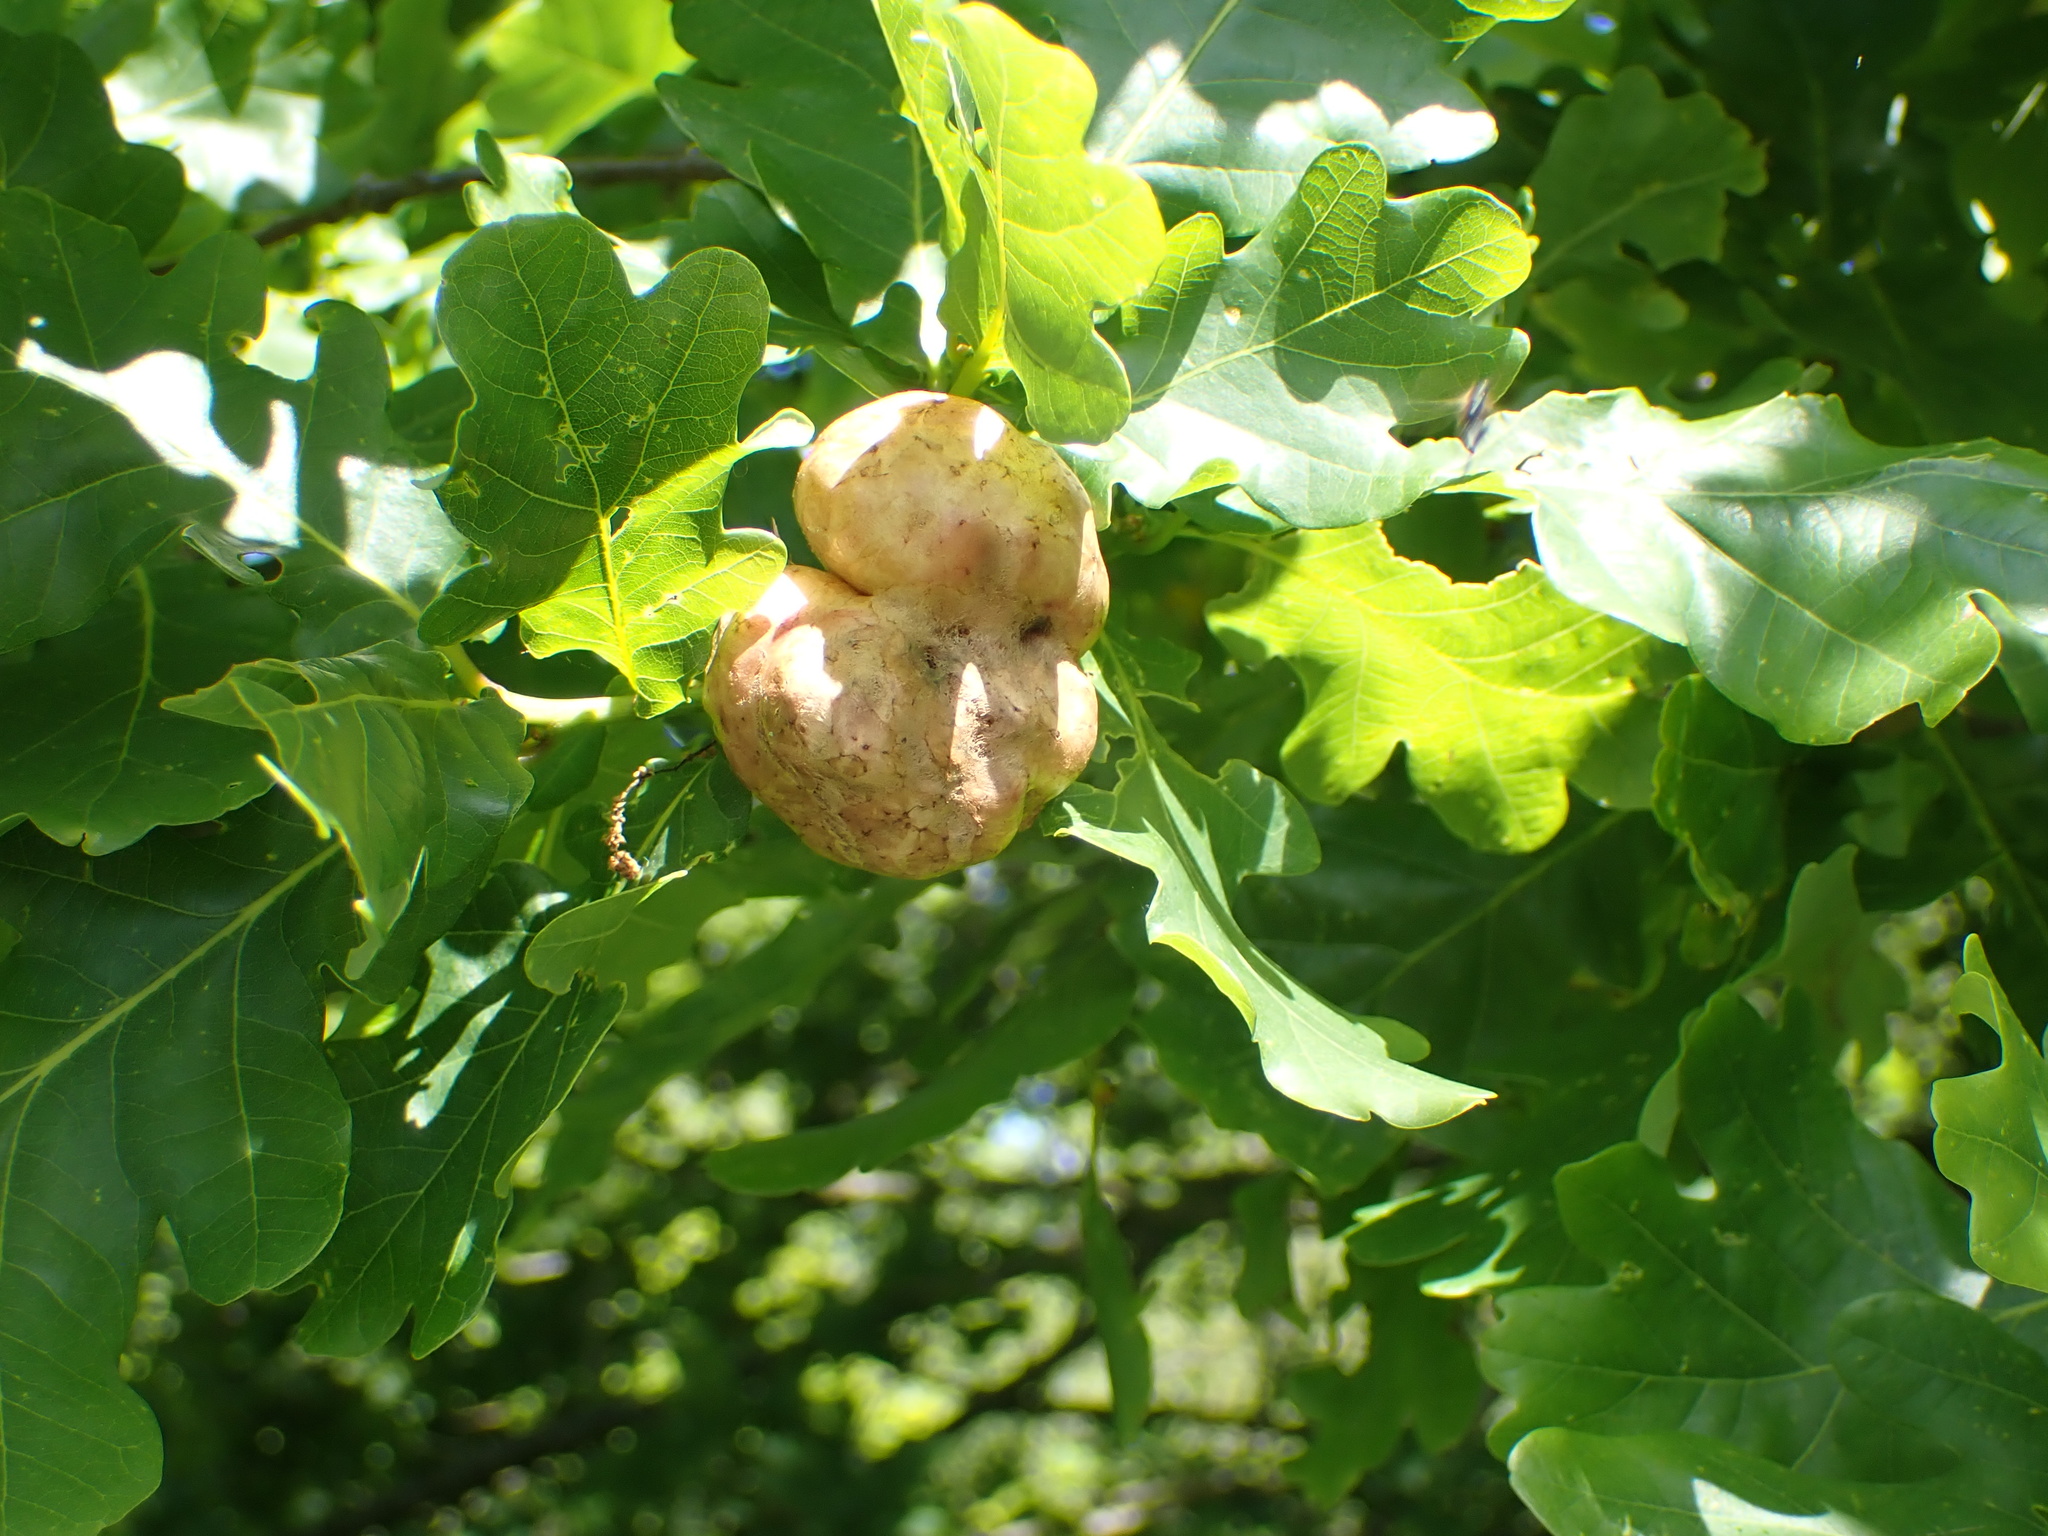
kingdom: Animalia
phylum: Arthropoda
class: Insecta
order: Hymenoptera
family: Cynipidae
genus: Biorhiza
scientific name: Biorhiza pallida
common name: Oak apple
